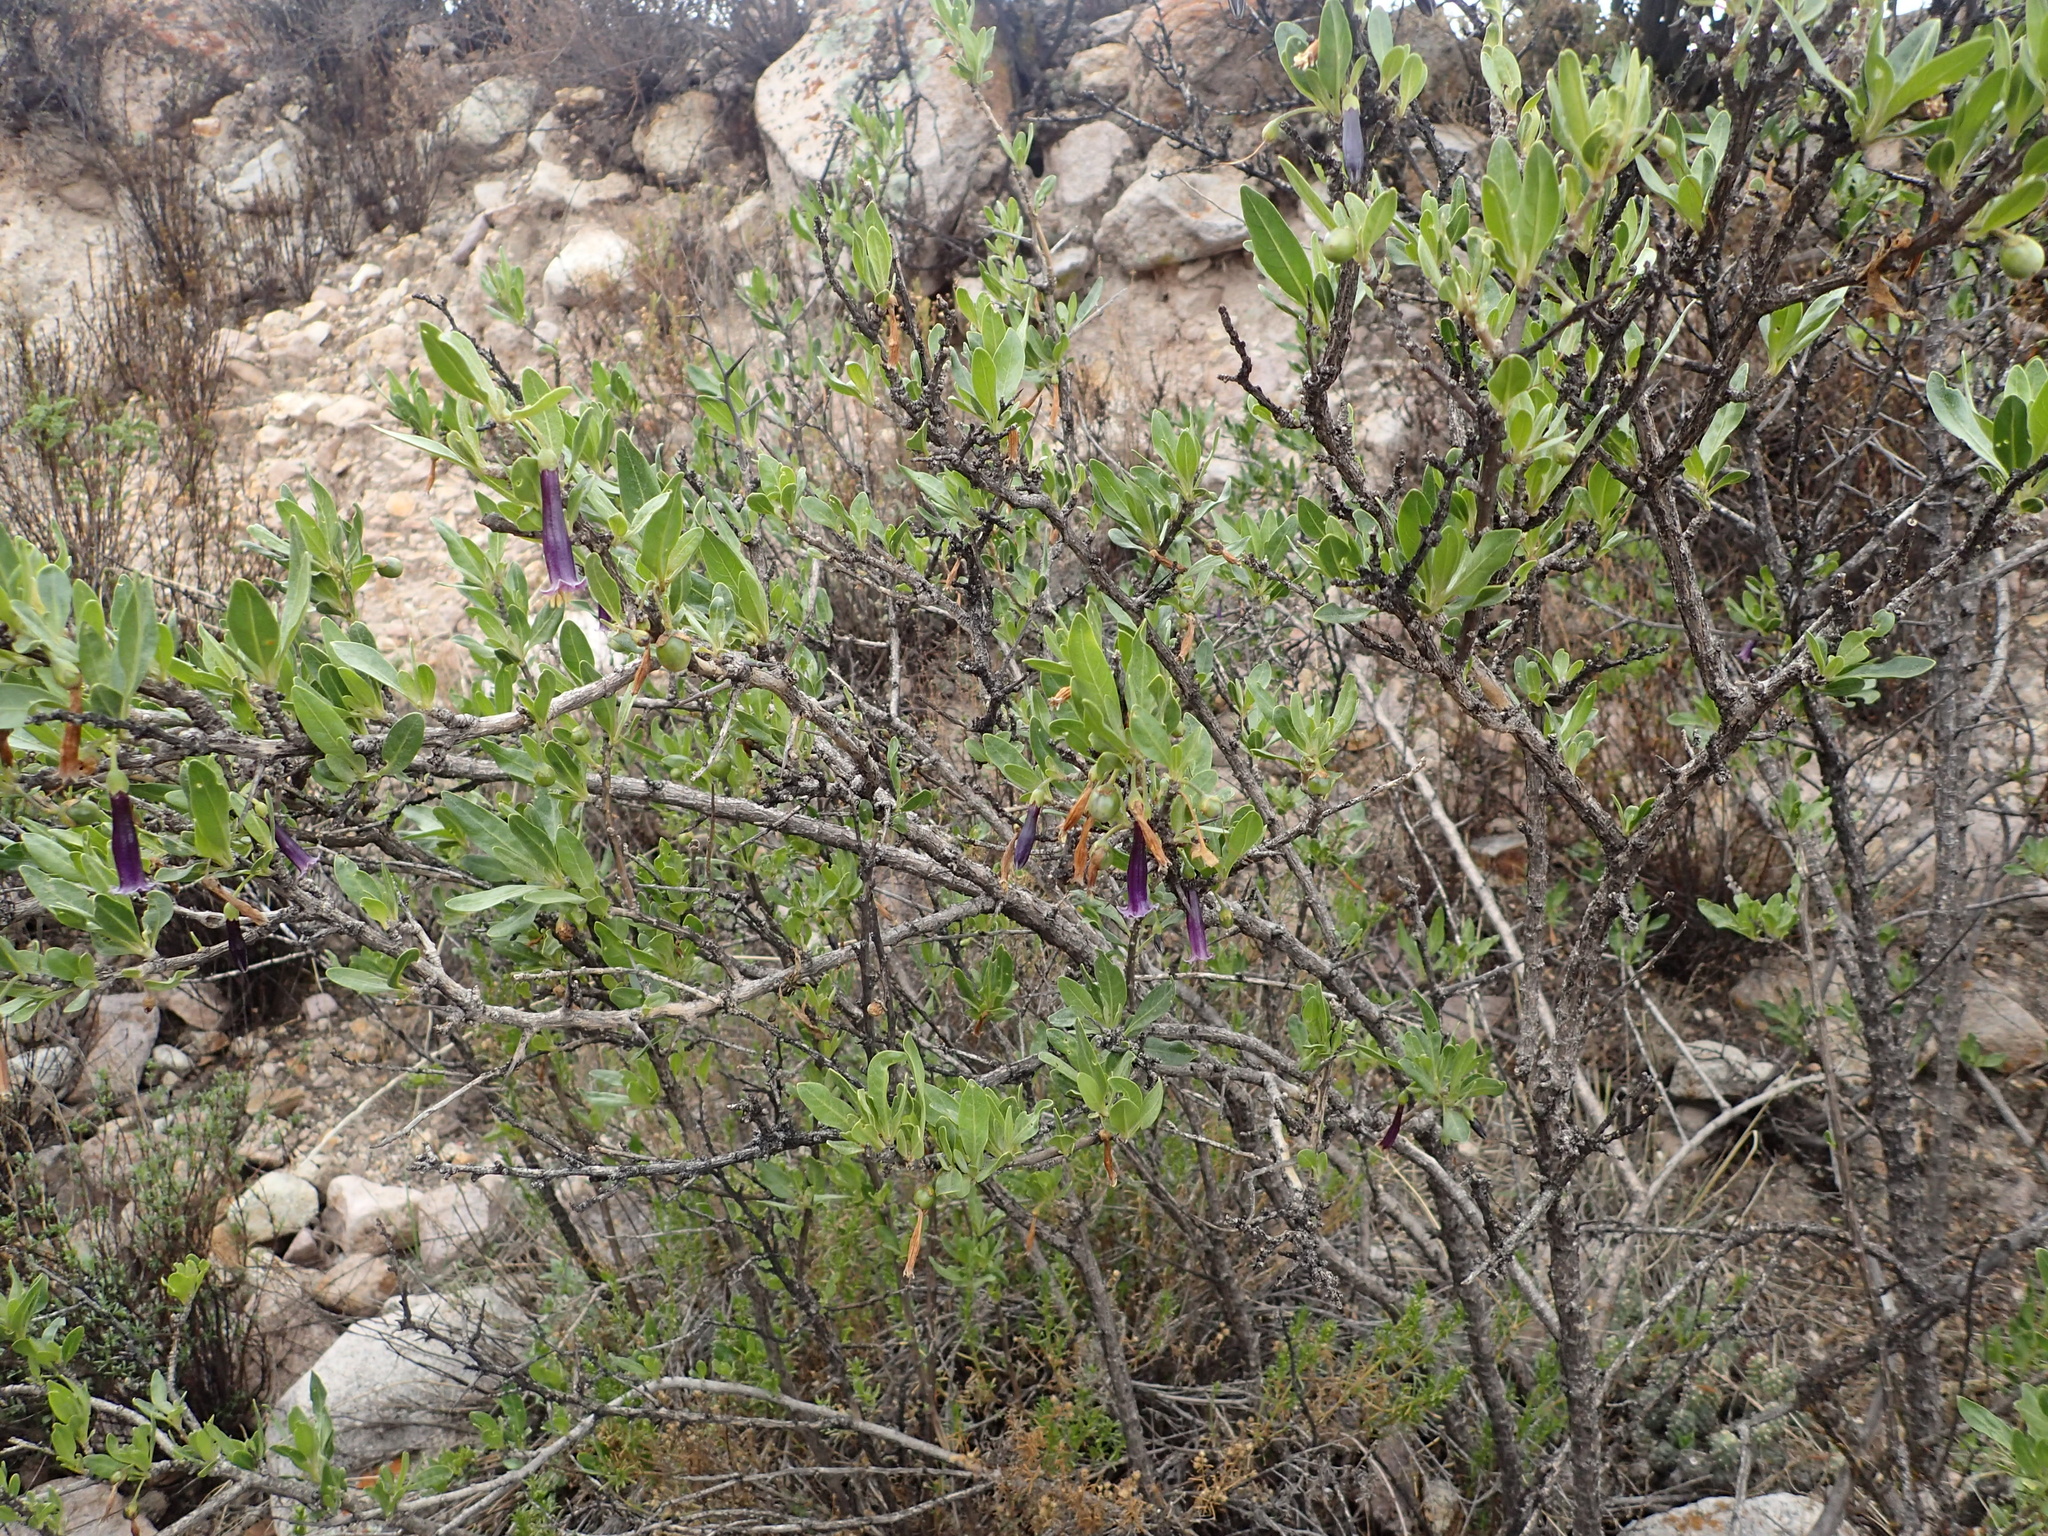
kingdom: Plantae
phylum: Tracheophyta
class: Magnoliopsida
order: Solanales
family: Solanaceae
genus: Dunalia
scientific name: Dunalia spinosa
